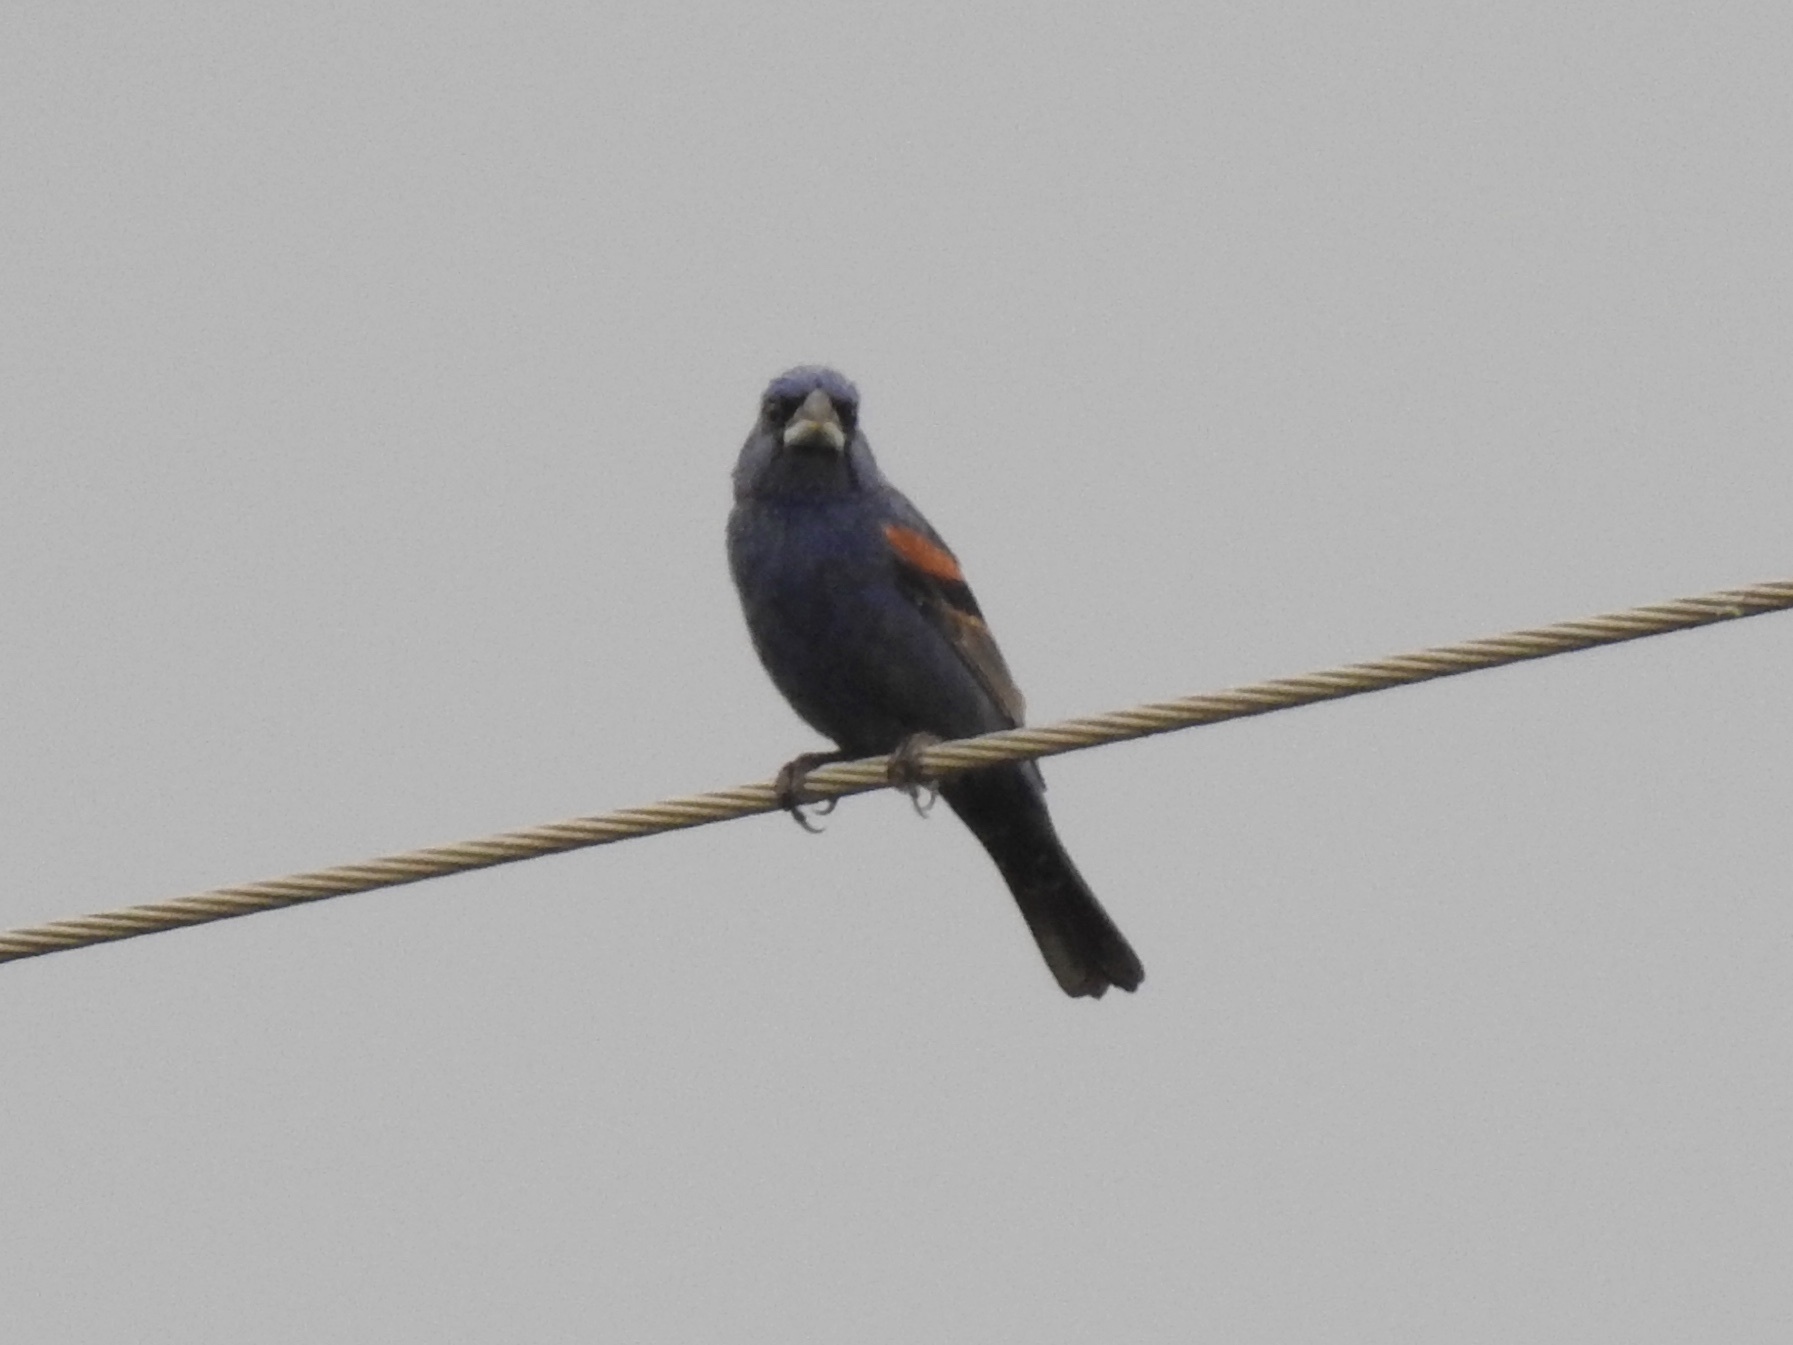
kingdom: Animalia
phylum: Chordata
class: Aves
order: Passeriformes
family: Cardinalidae
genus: Passerina
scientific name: Passerina caerulea
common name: Blue grosbeak
